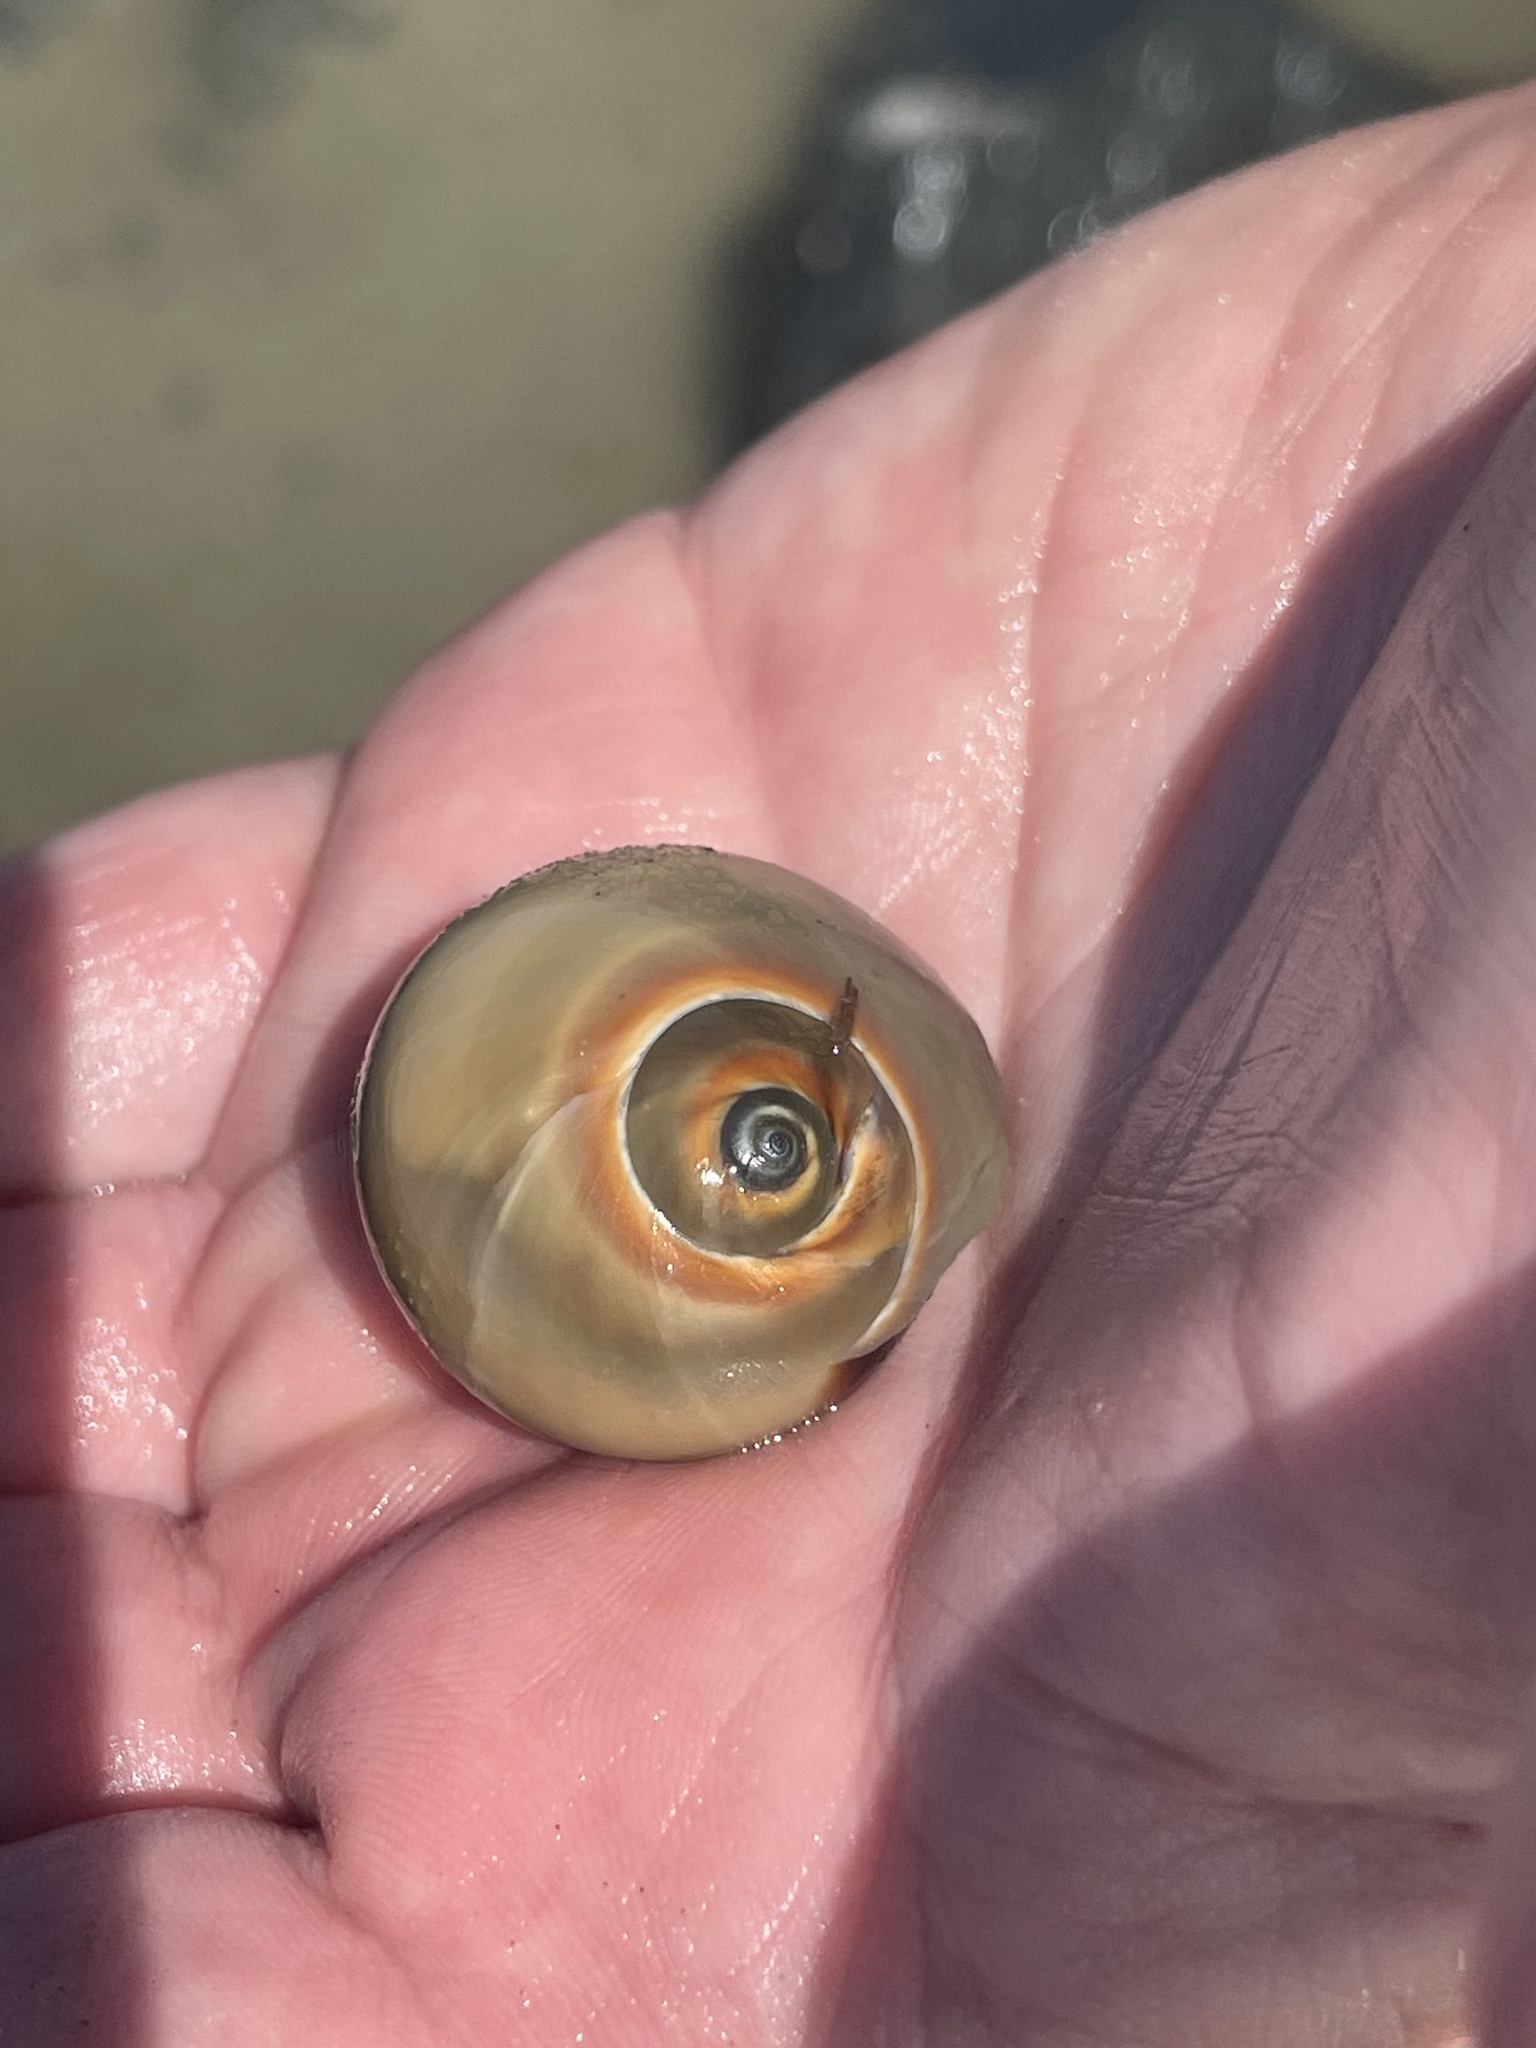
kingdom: Animalia
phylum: Mollusca
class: Gastropoda
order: Littorinimorpha
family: Naticidae
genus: Neverita
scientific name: Neverita duplicata
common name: Lobed moonsnail
